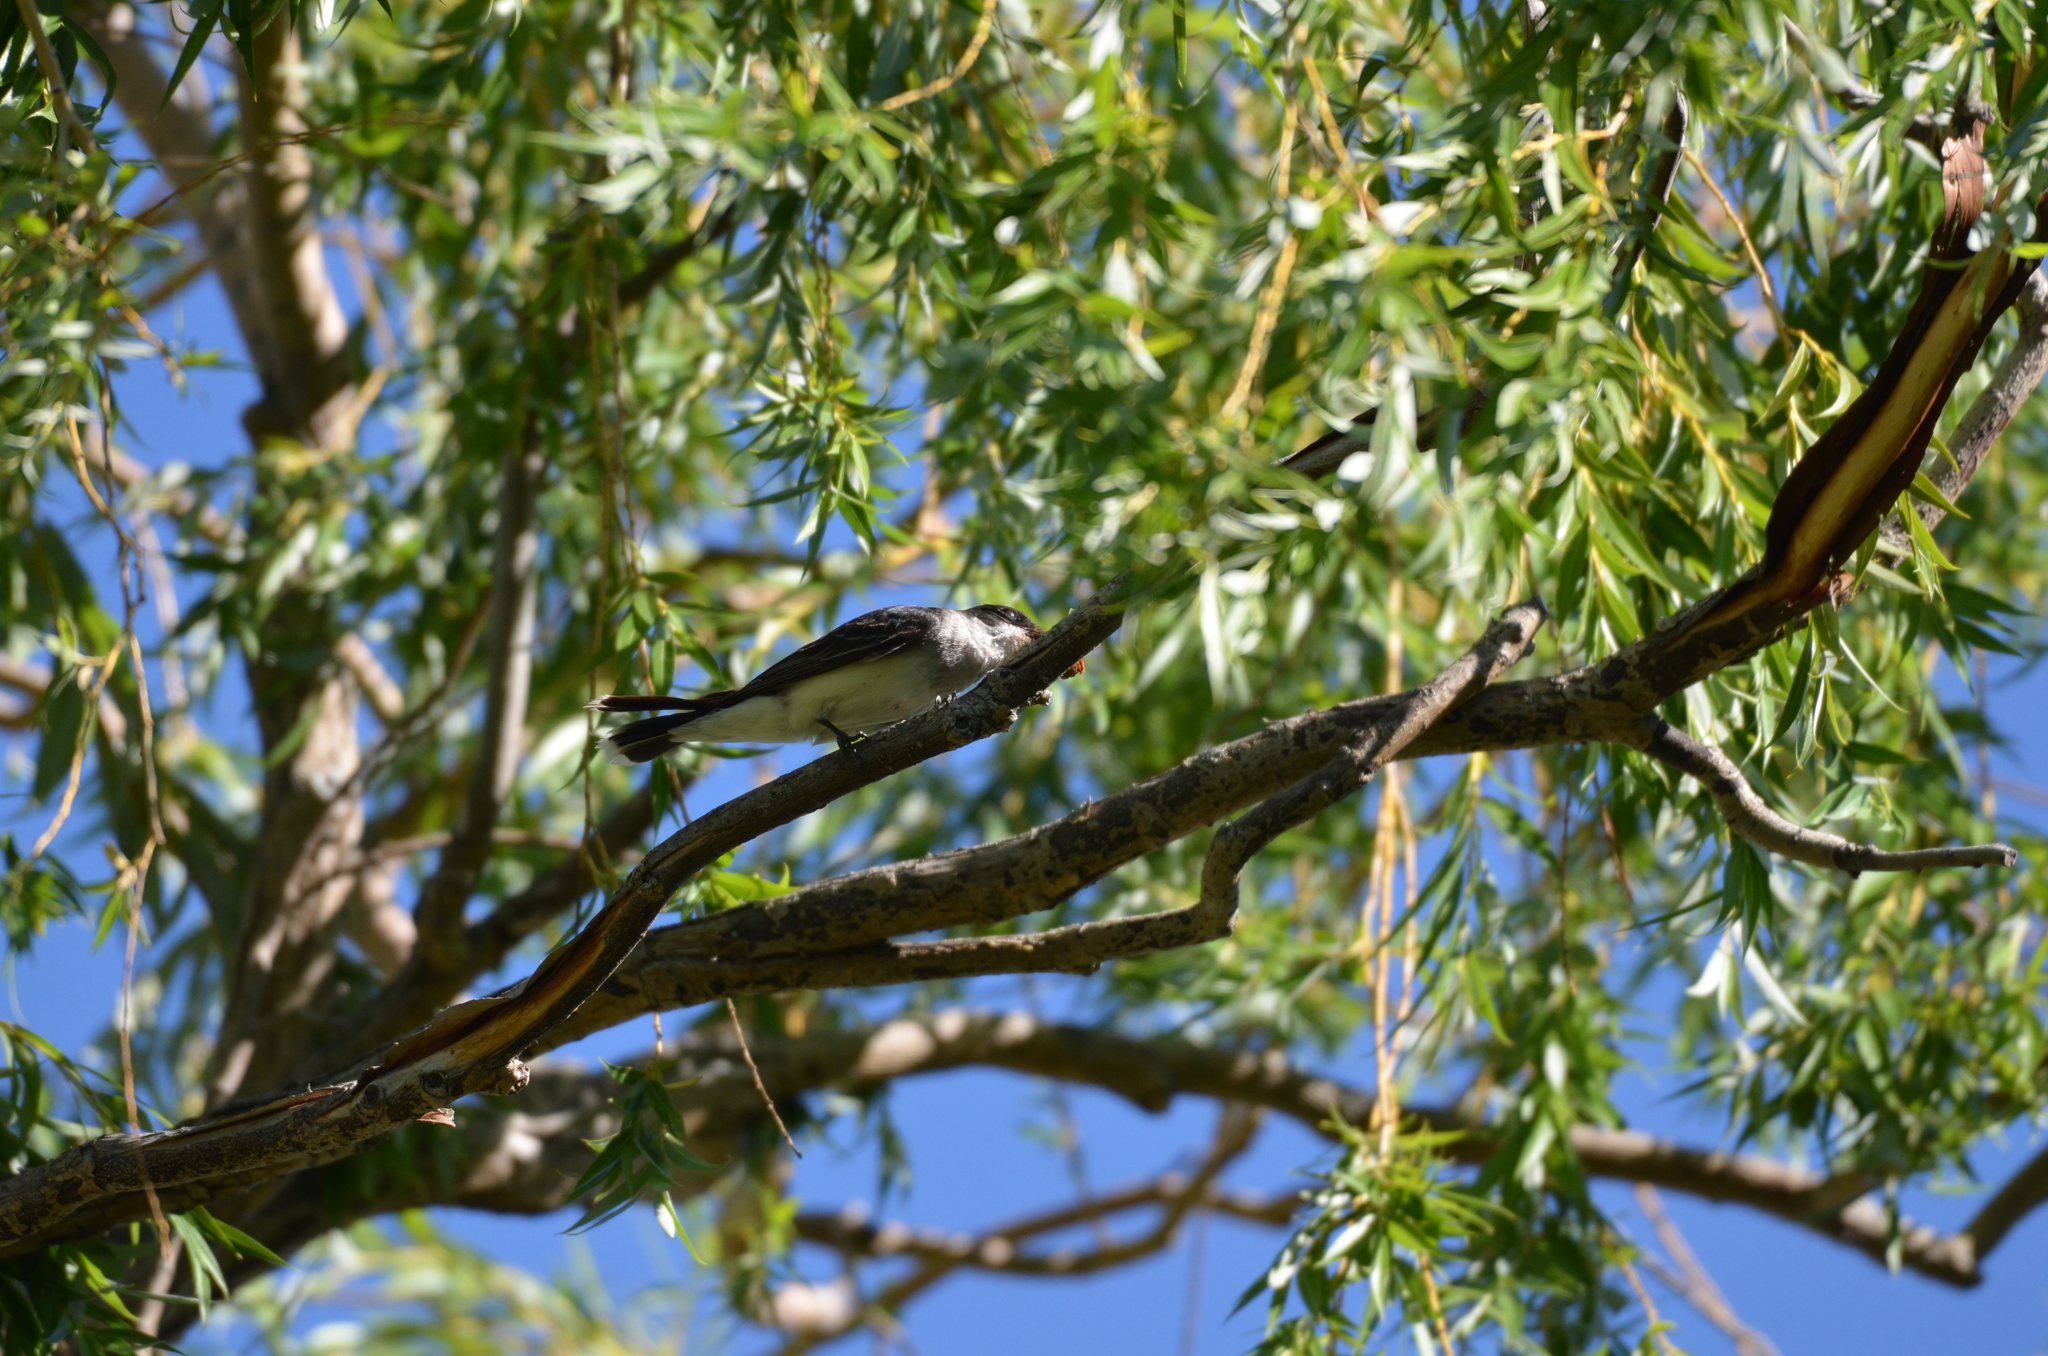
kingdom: Animalia
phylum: Chordata
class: Aves
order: Passeriformes
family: Tyrannidae
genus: Tyrannus
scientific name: Tyrannus tyrannus
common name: Eastern kingbird
